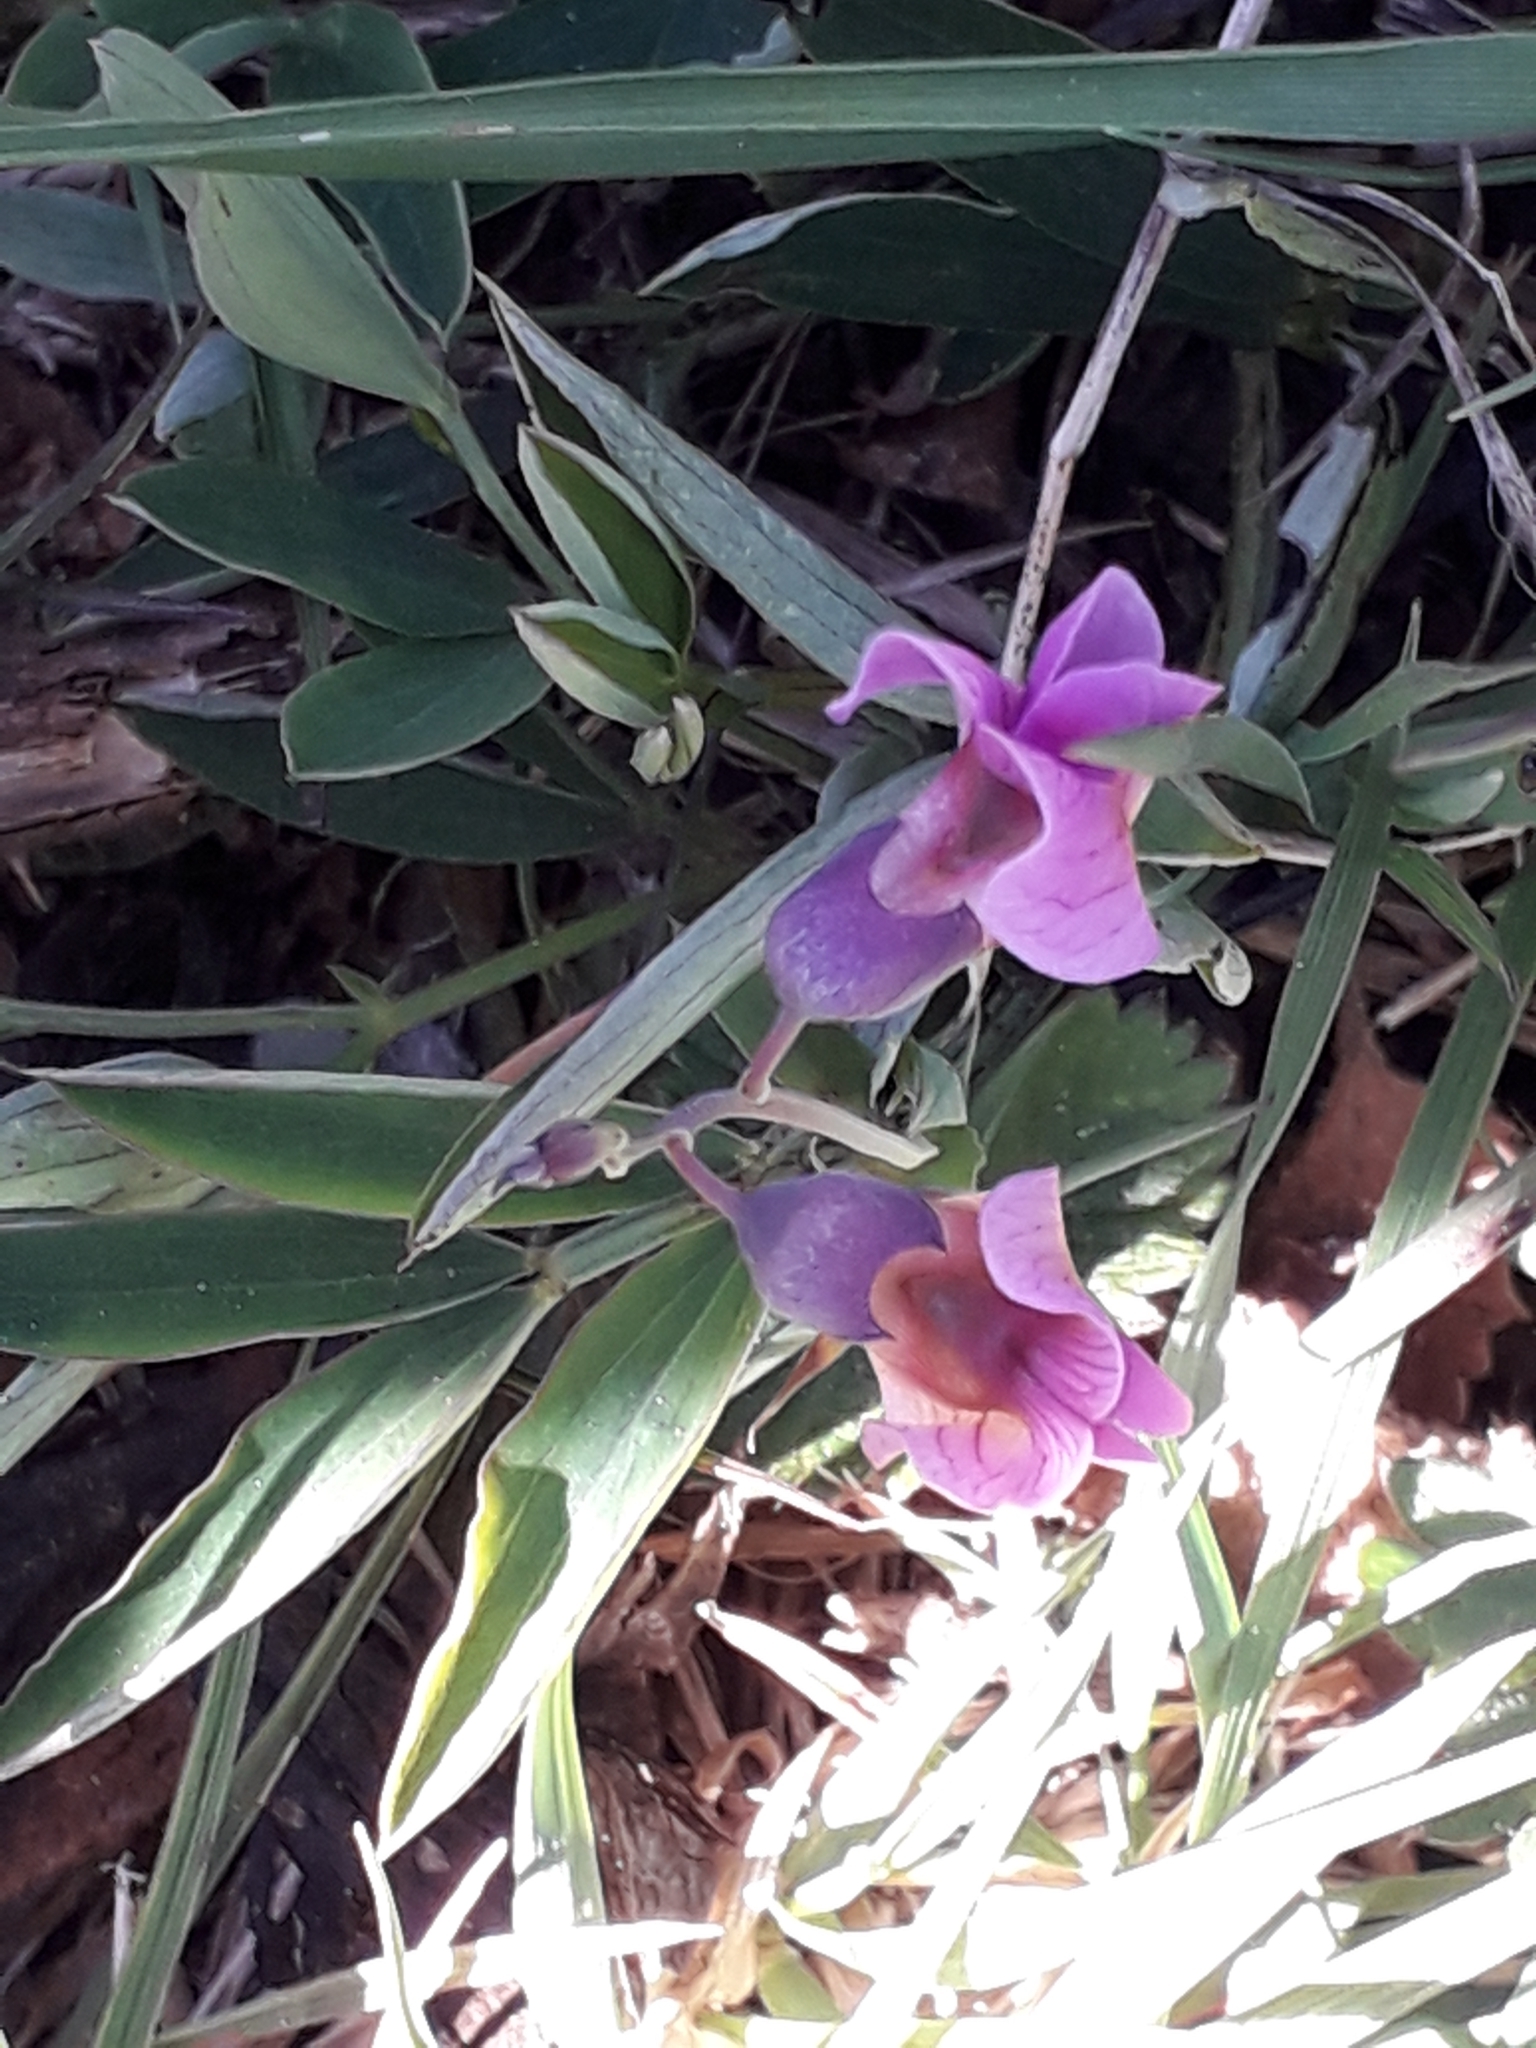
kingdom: Plantae
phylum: Tracheophyta
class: Magnoliopsida
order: Fabales
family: Fabaceae
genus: Lathyrus
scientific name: Lathyrus linifolius
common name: Bitter-vetch
